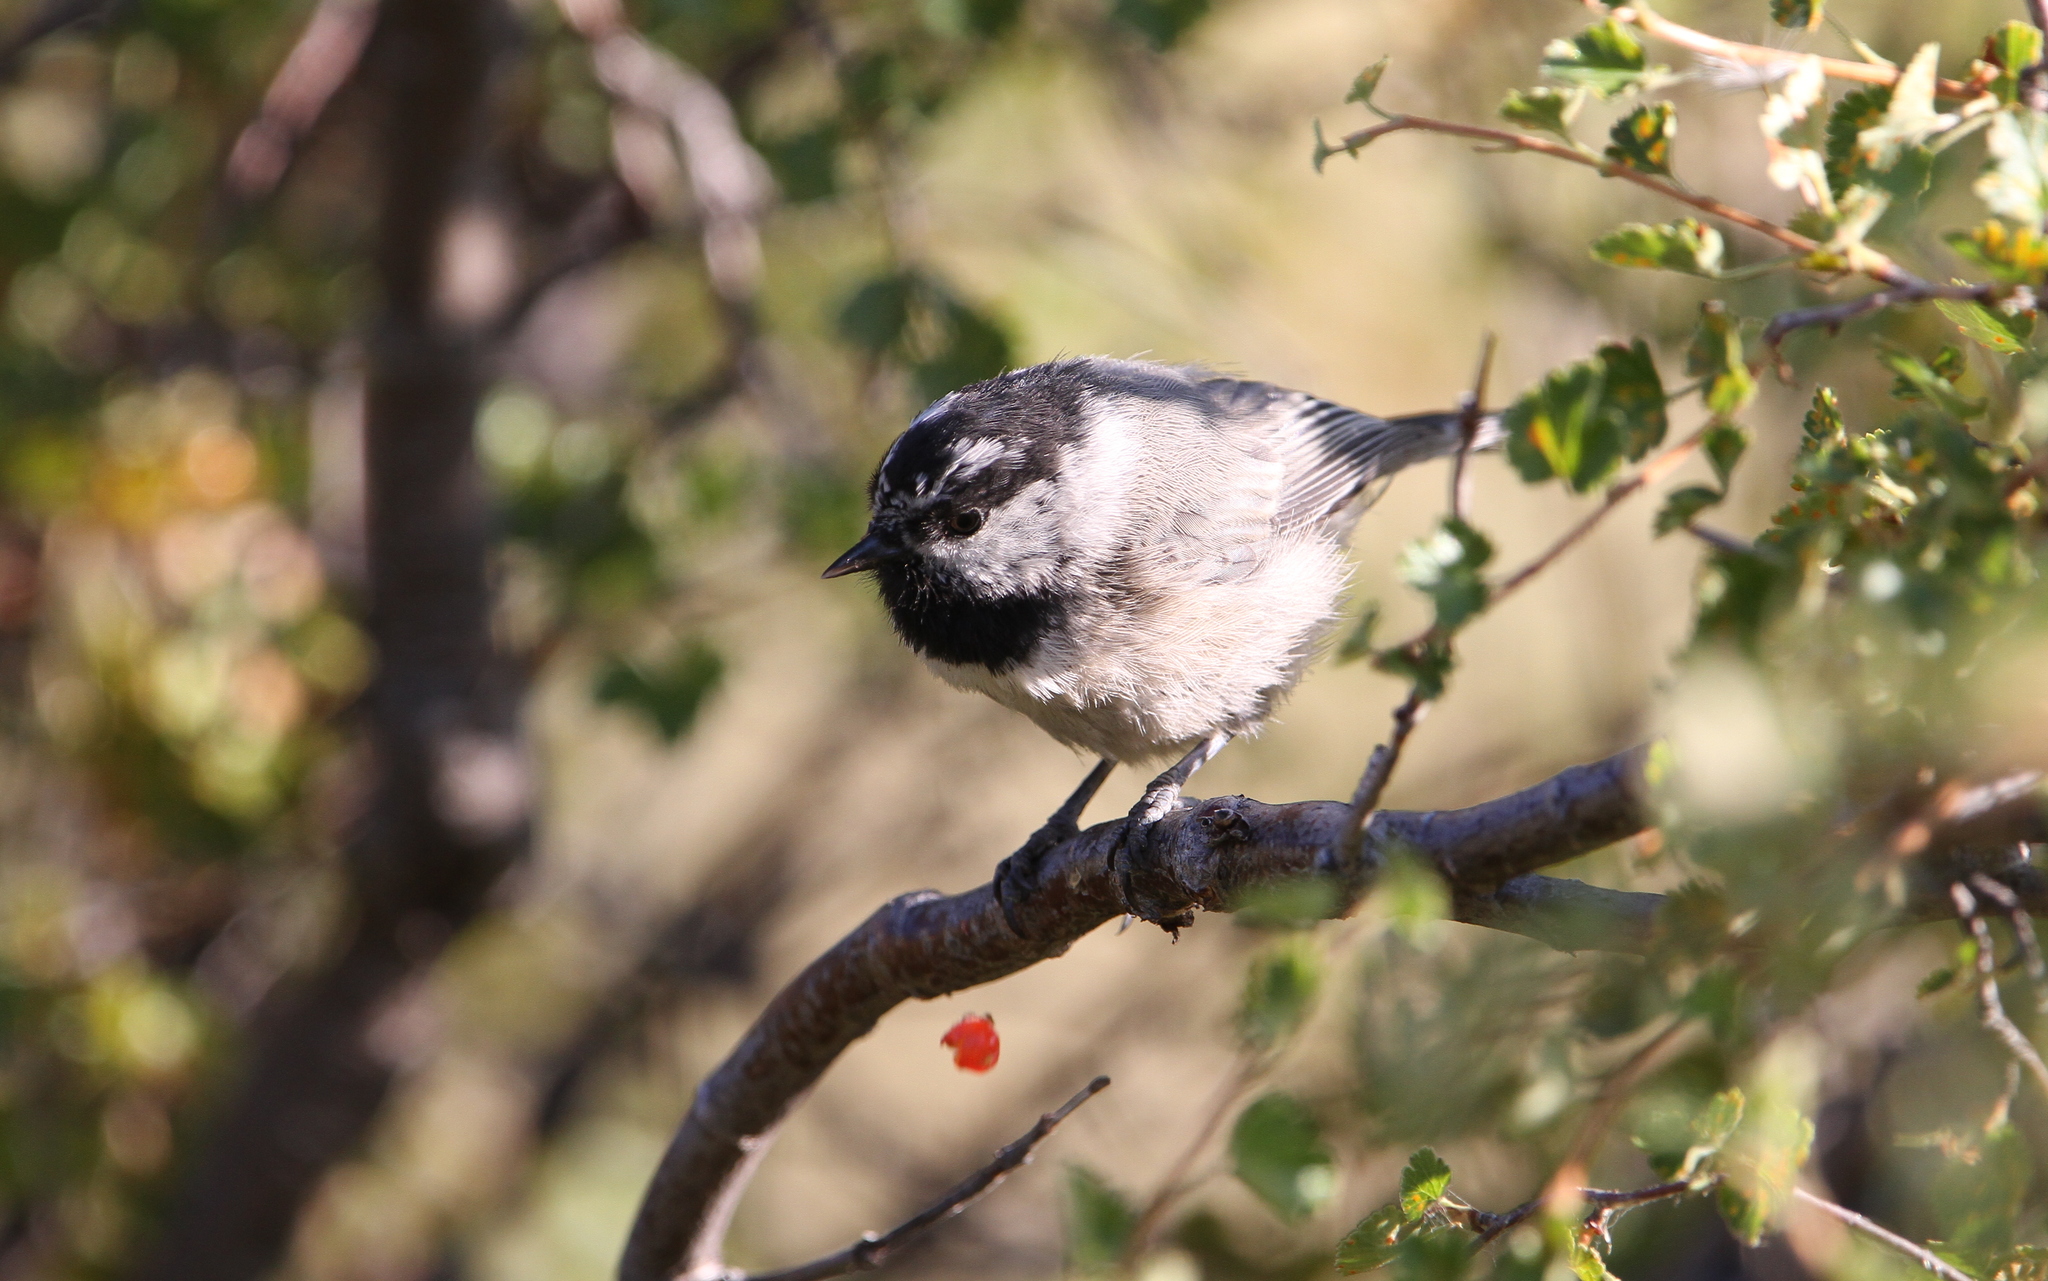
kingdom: Animalia
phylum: Chordata
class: Aves
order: Passeriformes
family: Paridae
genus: Poecile
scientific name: Poecile gambeli
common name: Mountain chickadee
